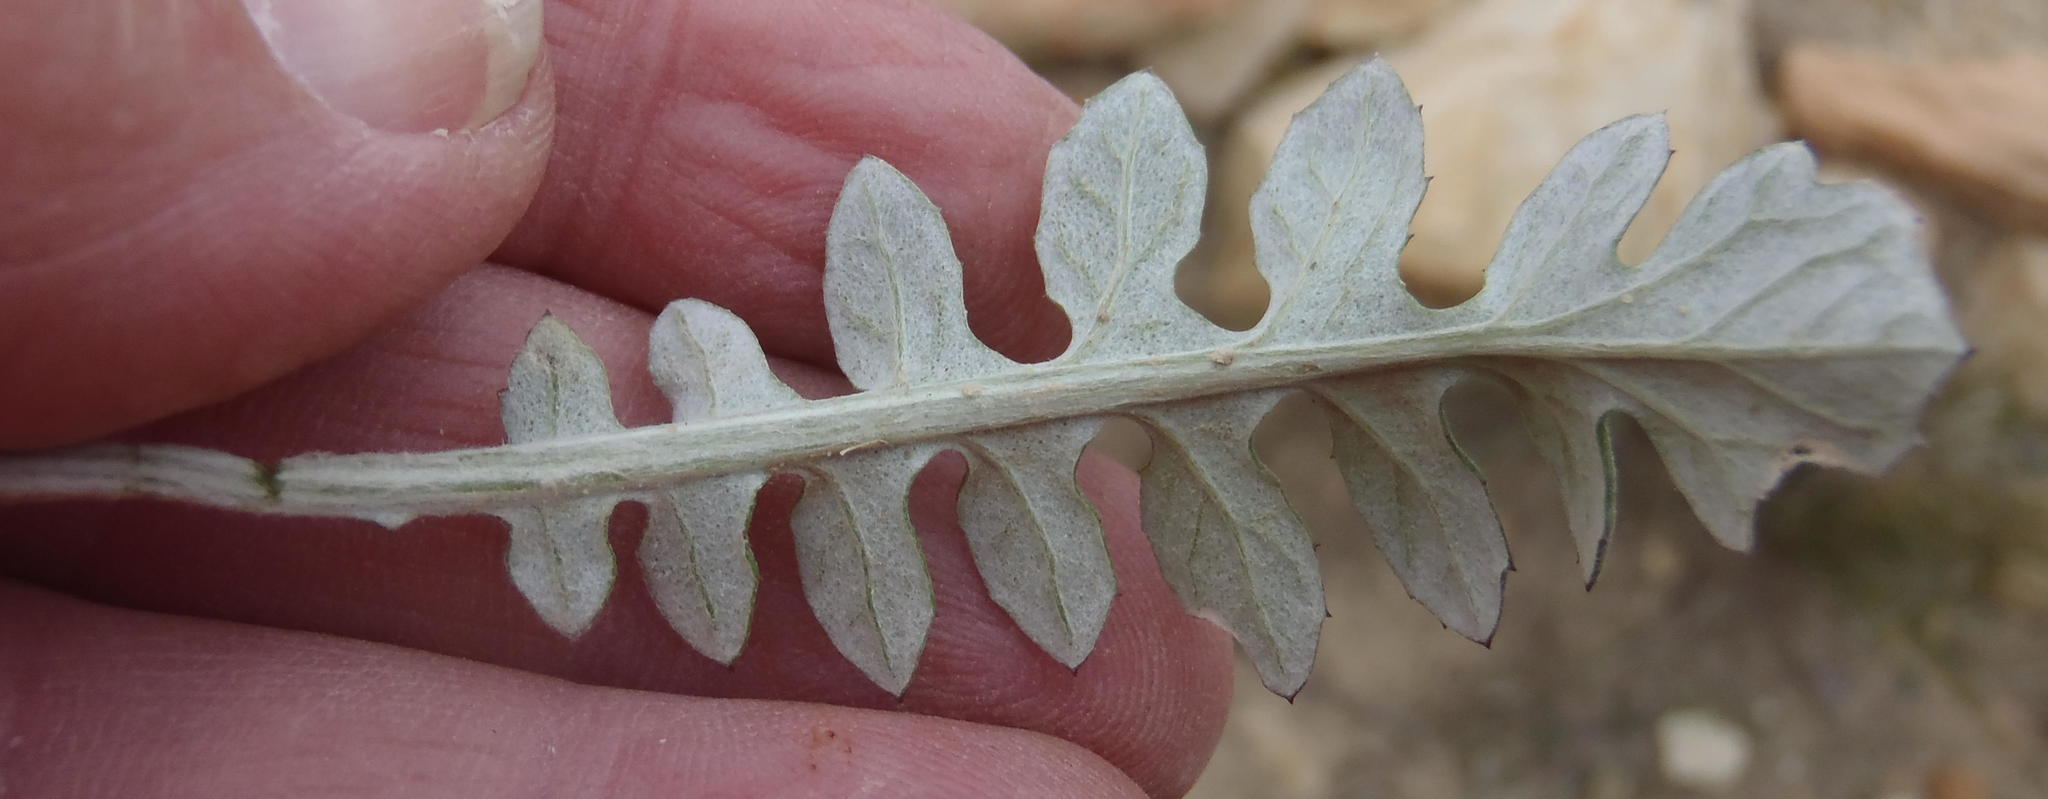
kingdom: Plantae
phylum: Tracheophyta
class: Magnoliopsida
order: Asterales
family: Asteraceae
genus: Arctotheca
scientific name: Arctotheca prostrata
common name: Capeweed
